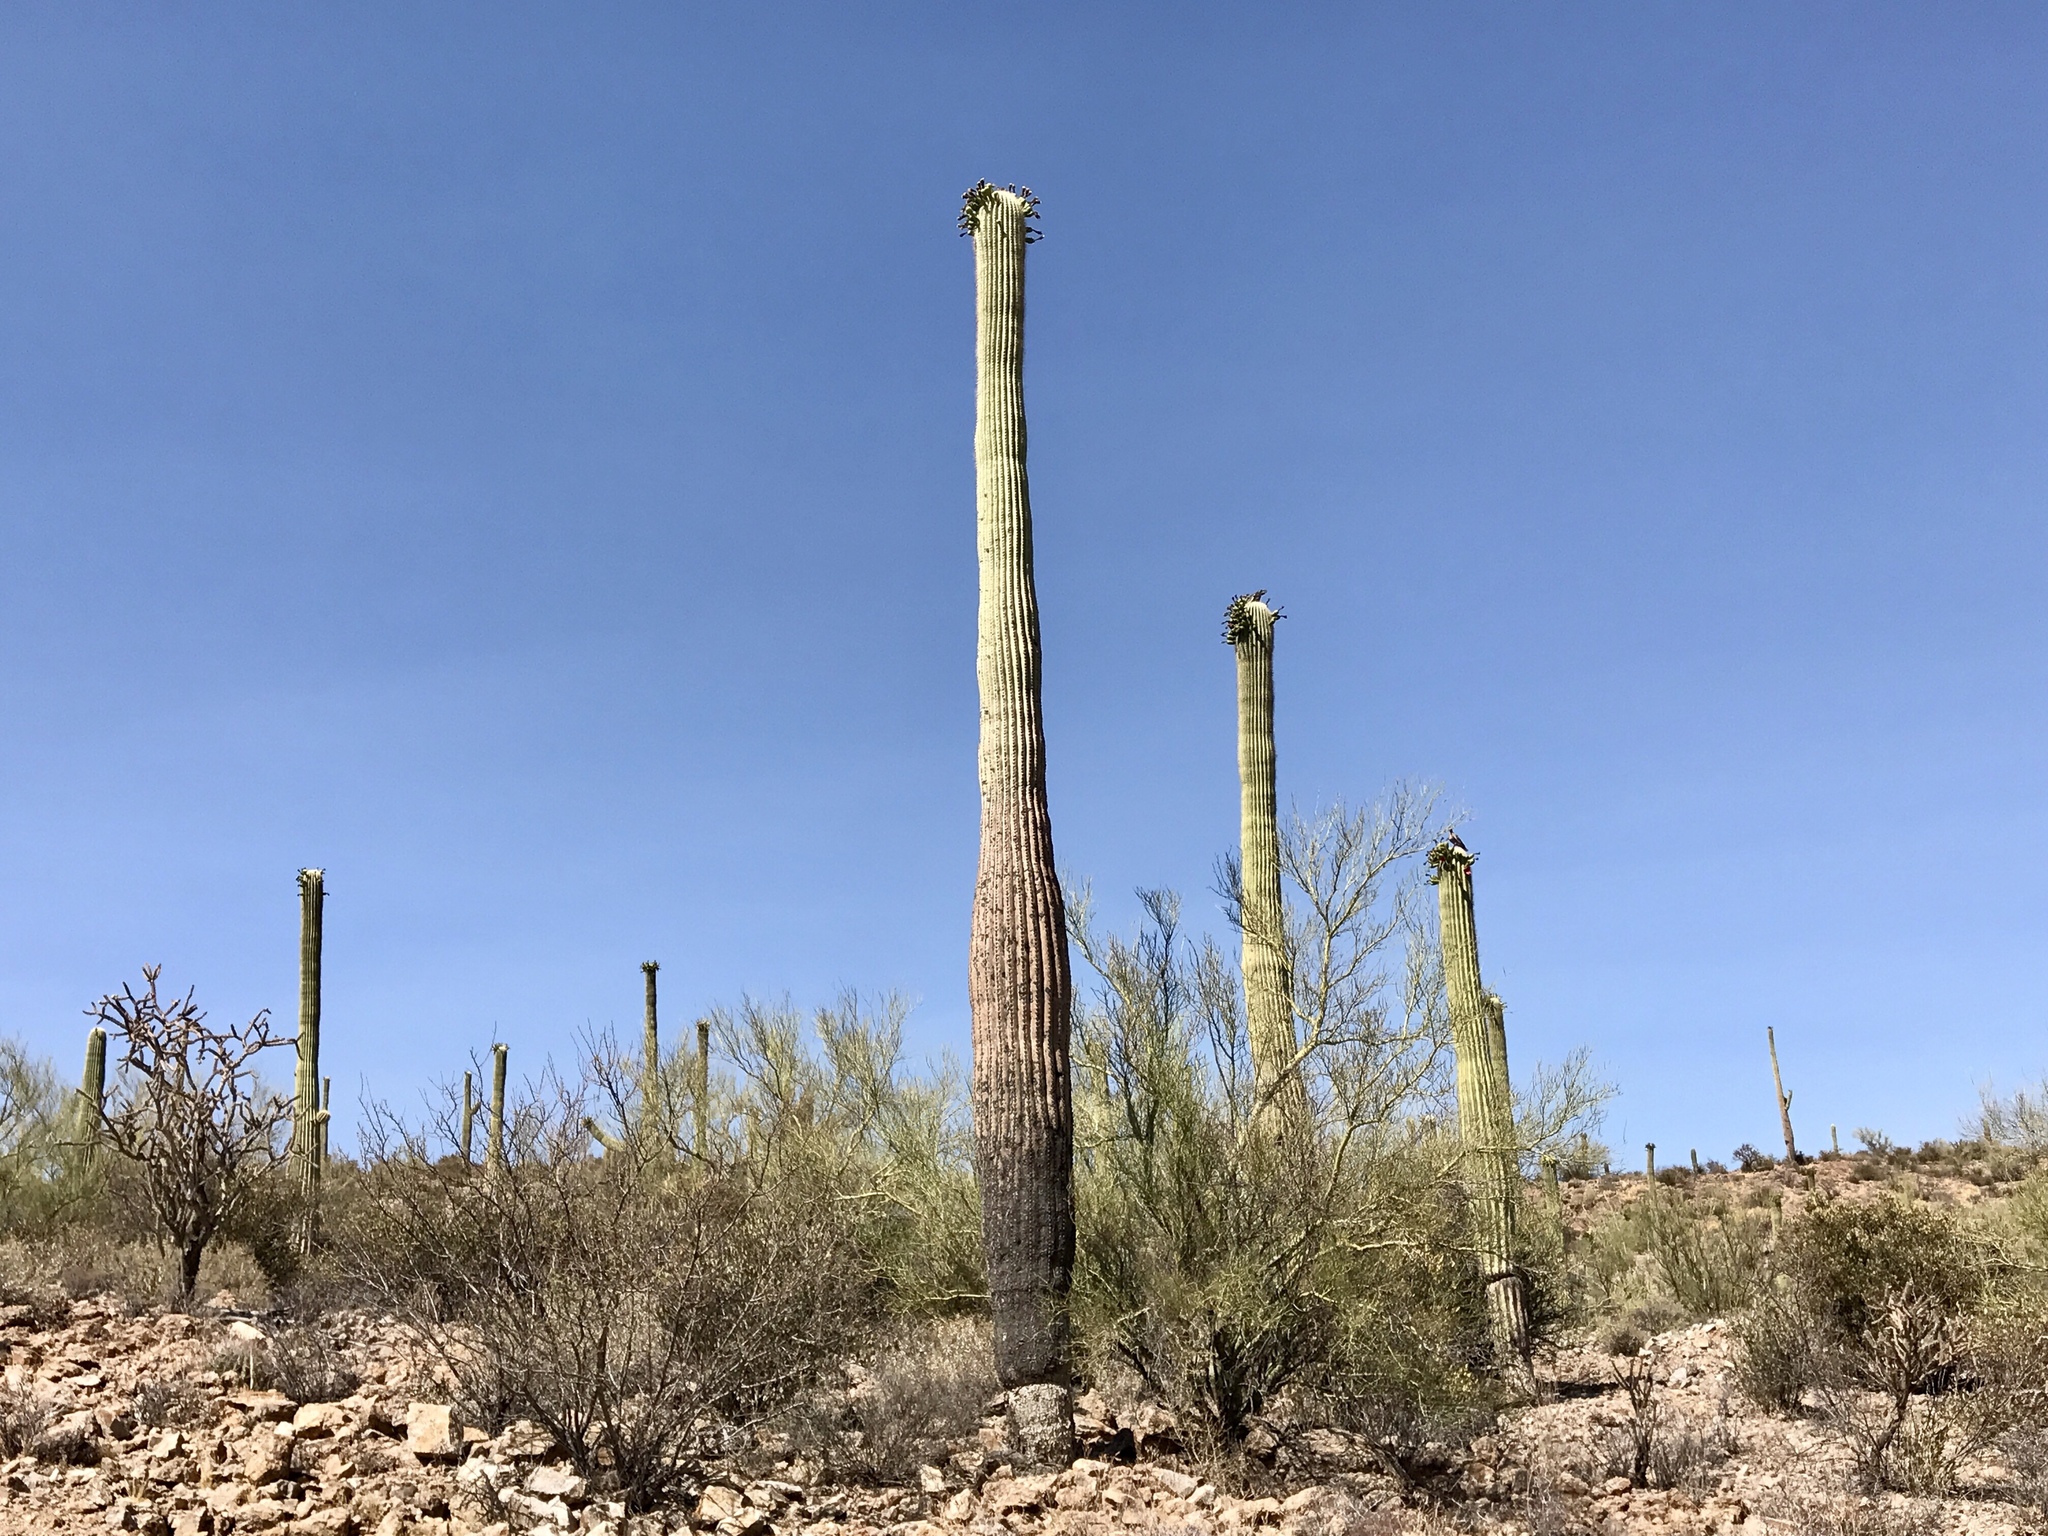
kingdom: Plantae
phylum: Tracheophyta
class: Magnoliopsida
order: Caryophyllales
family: Cactaceae
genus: Carnegiea
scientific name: Carnegiea gigantea
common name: Saguaro
